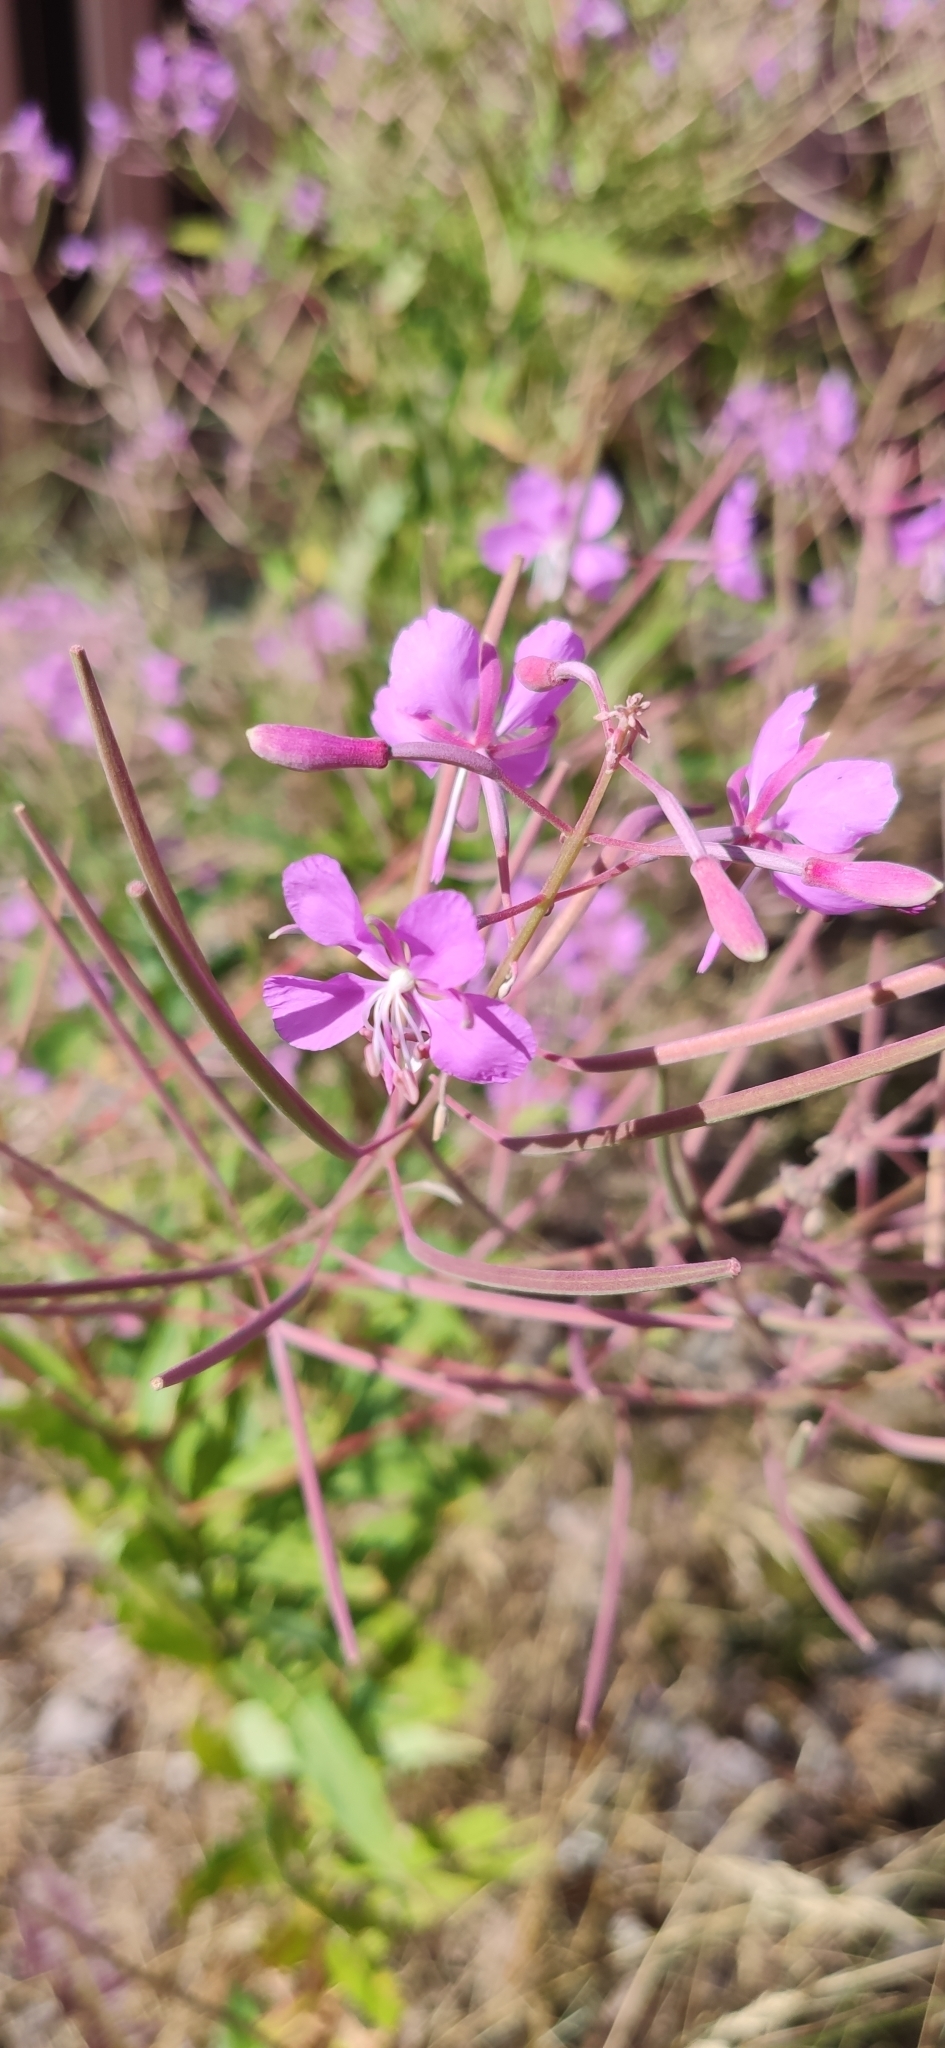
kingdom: Plantae
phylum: Tracheophyta
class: Magnoliopsida
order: Myrtales
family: Onagraceae
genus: Chamaenerion
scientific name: Chamaenerion angustifolium
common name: Fireweed
